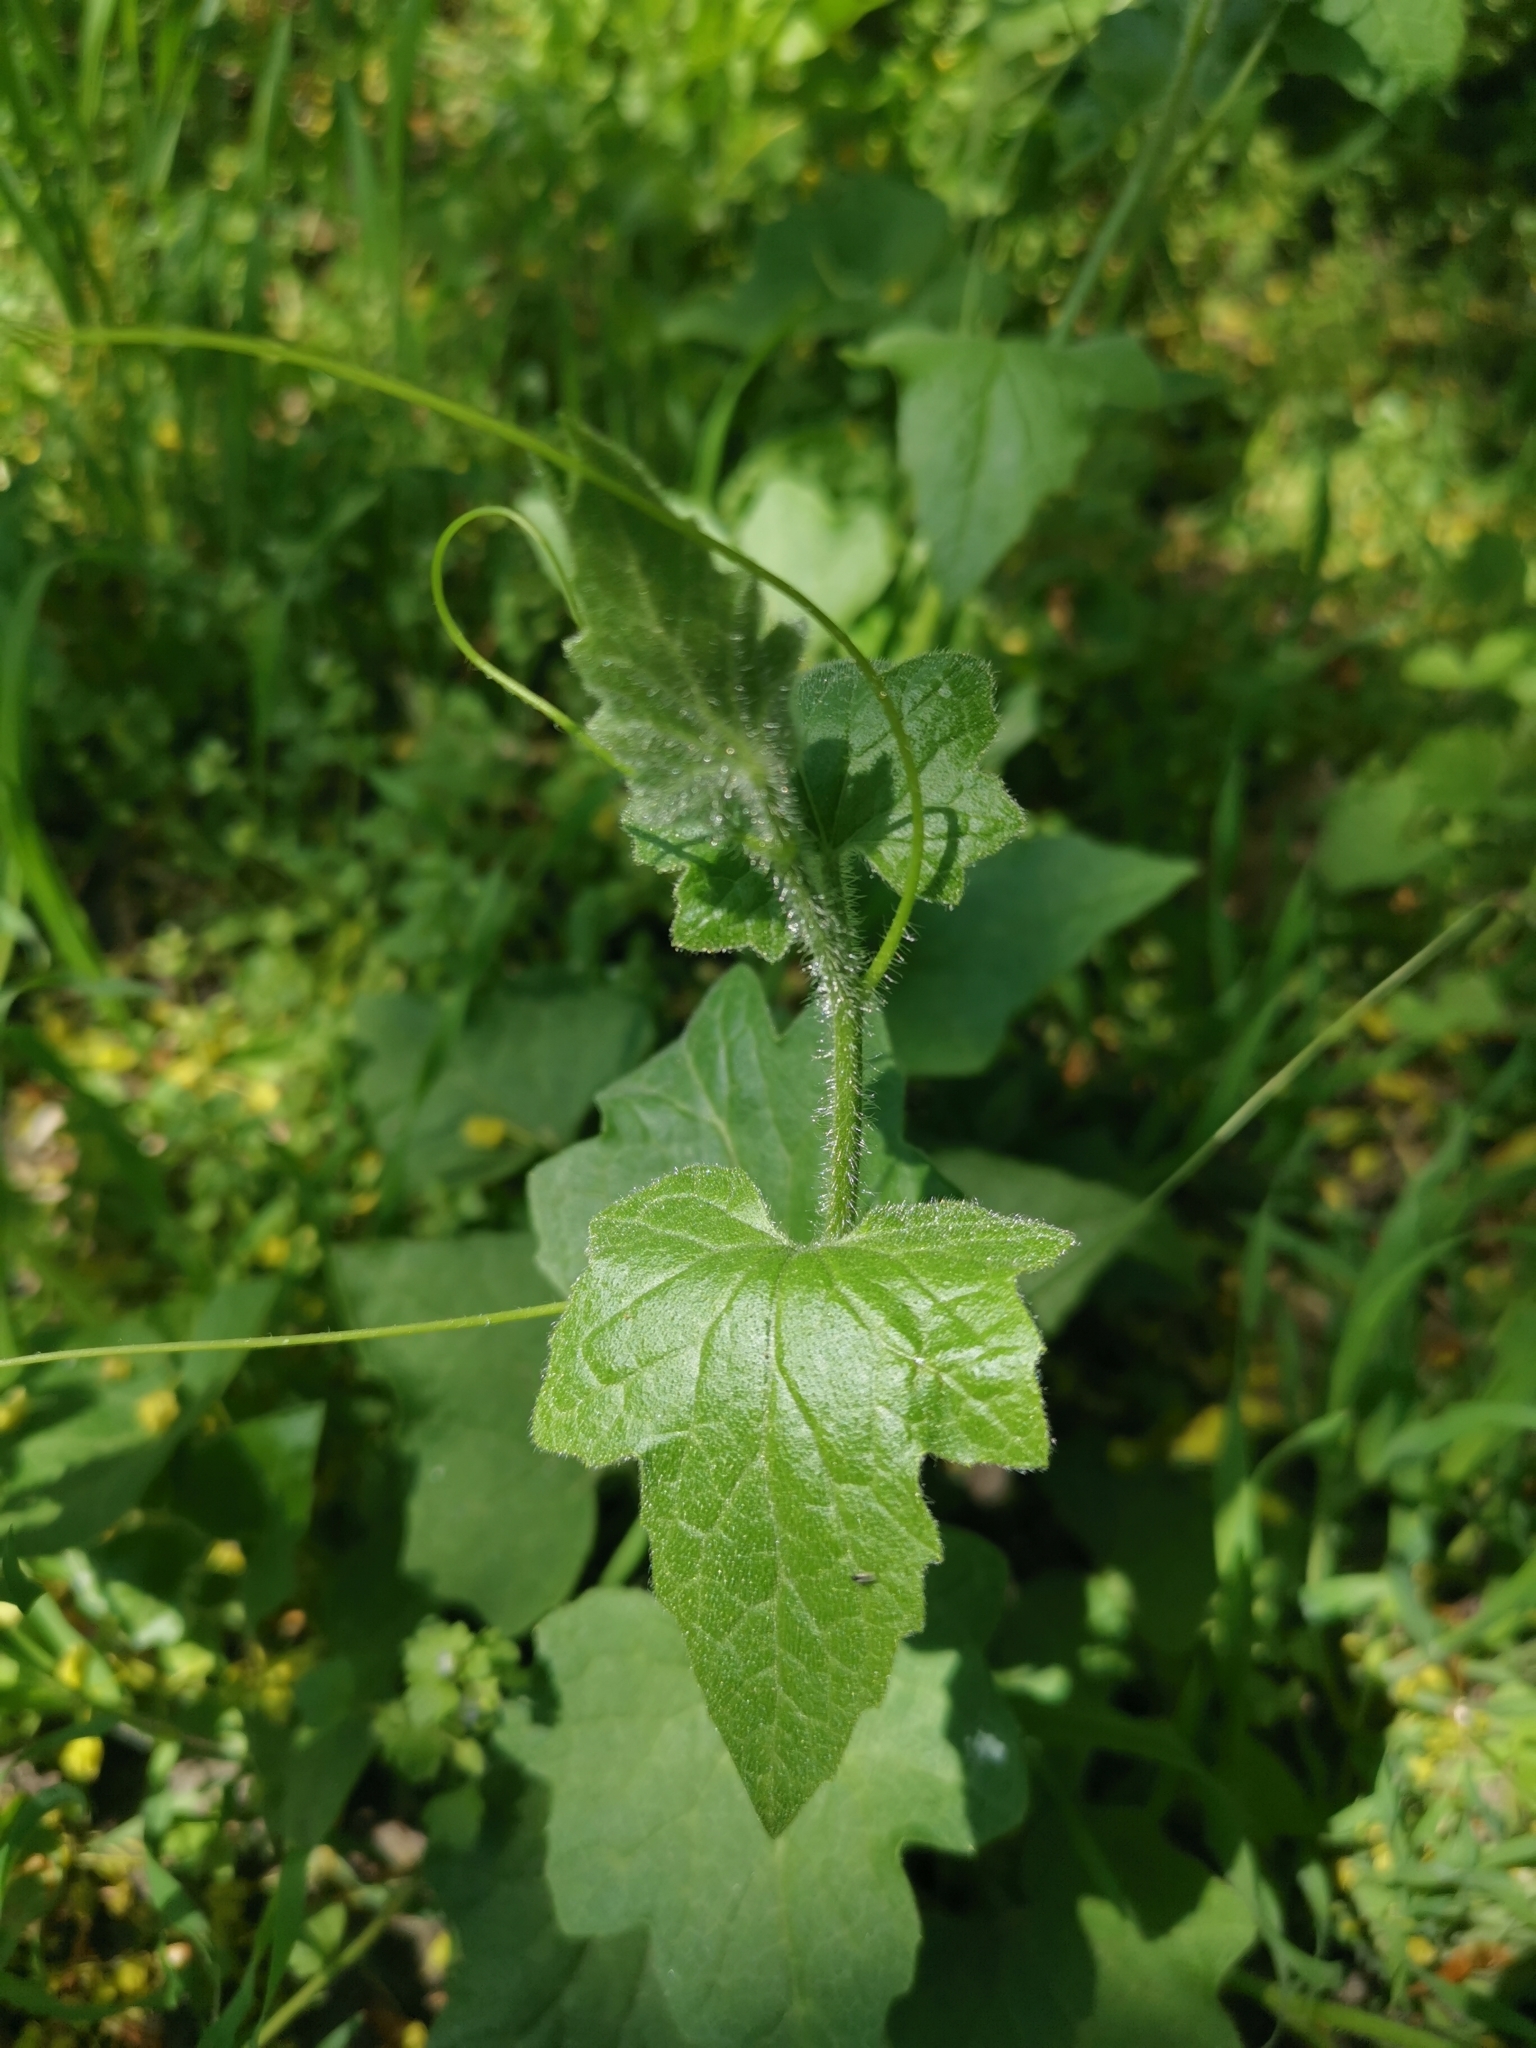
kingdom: Plantae
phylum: Tracheophyta
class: Magnoliopsida
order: Cucurbitales
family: Cucurbitaceae
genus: Bryonia
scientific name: Bryonia cretica
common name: Cretan bryony
